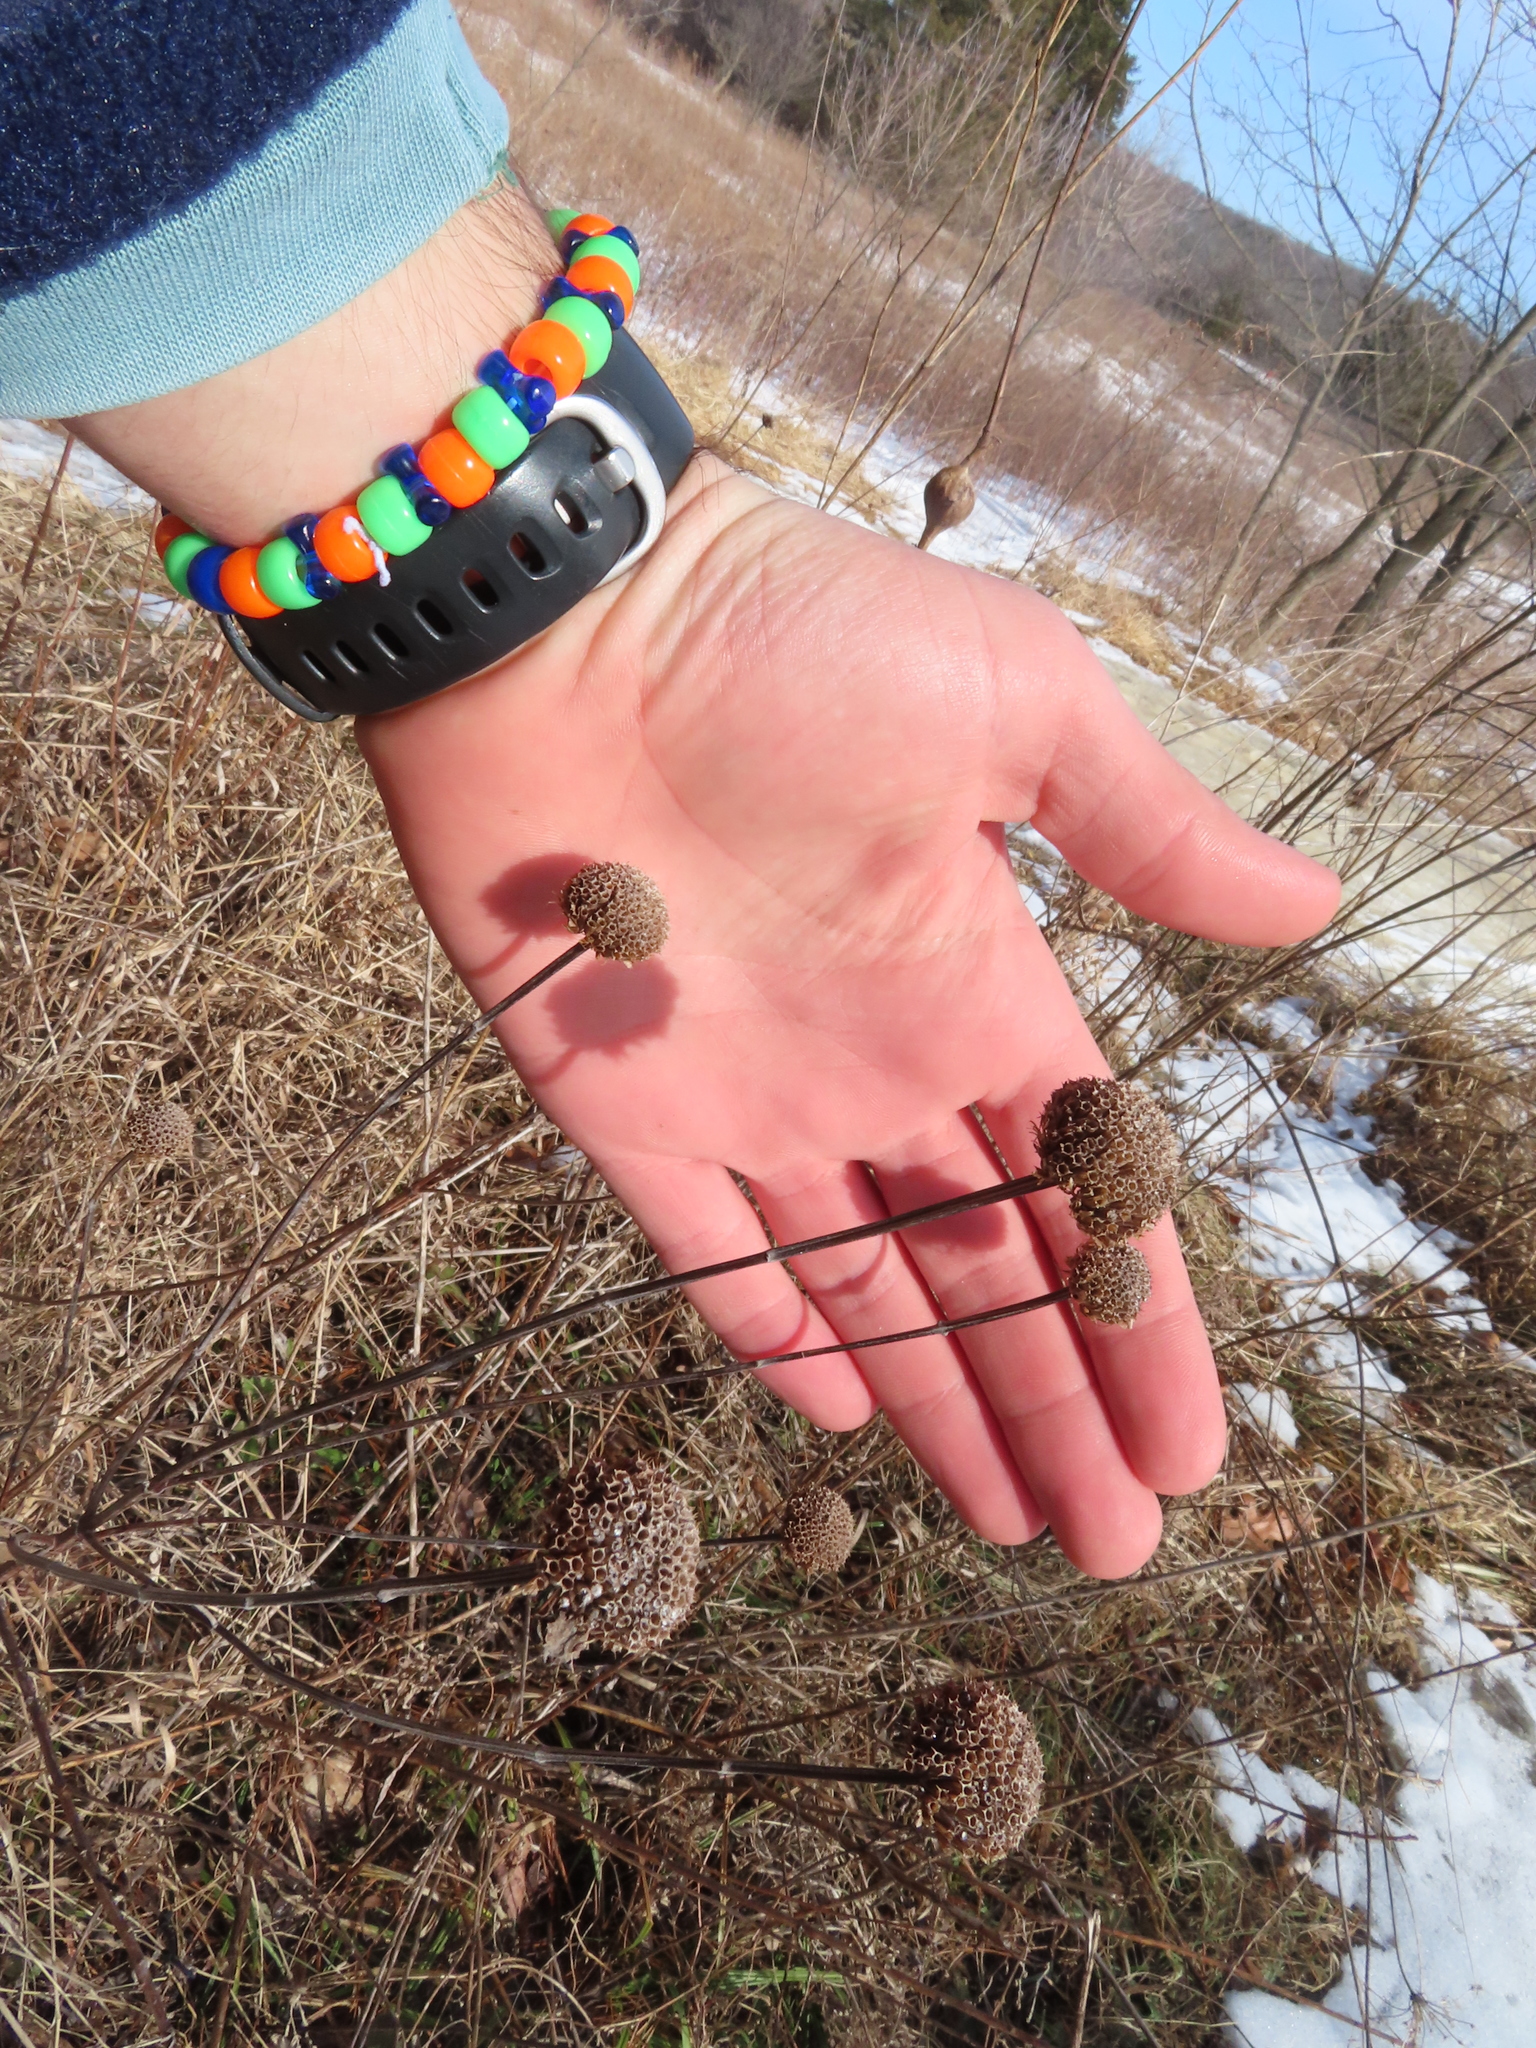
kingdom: Plantae
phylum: Tracheophyta
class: Magnoliopsida
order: Lamiales
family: Lamiaceae
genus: Monarda
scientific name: Monarda fistulosa
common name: Purple beebalm
